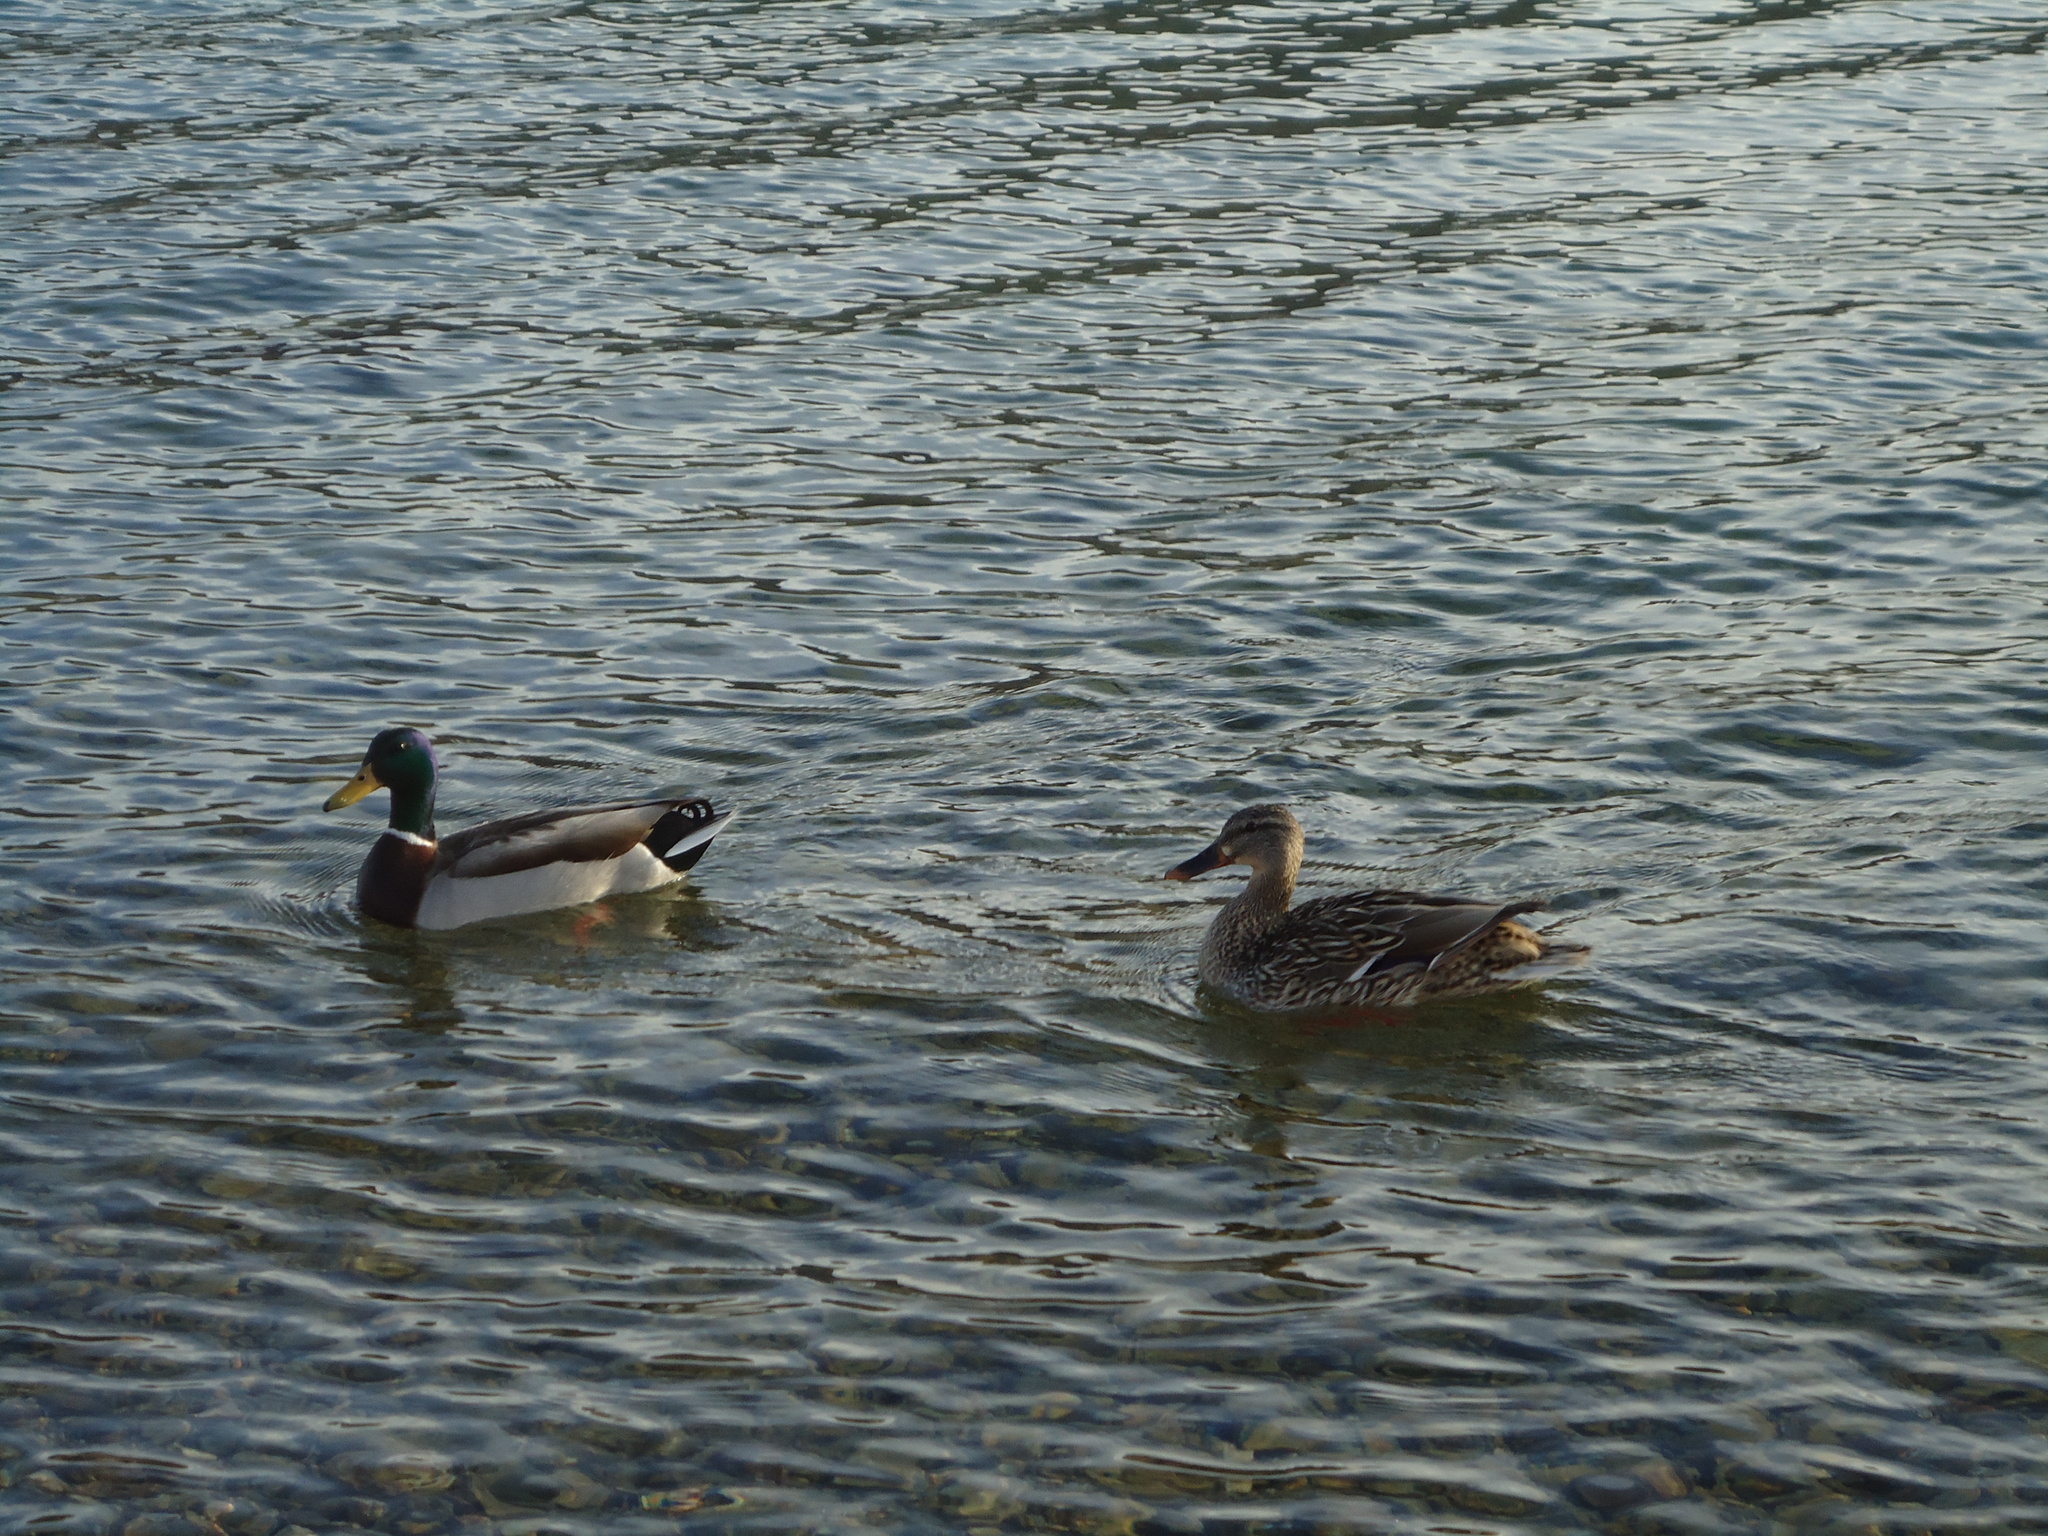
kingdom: Animalia
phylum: Chordata
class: Aves
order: Anseriformes
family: Anatidae
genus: Anas
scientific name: Anas platyrhynchos
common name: Mallard
